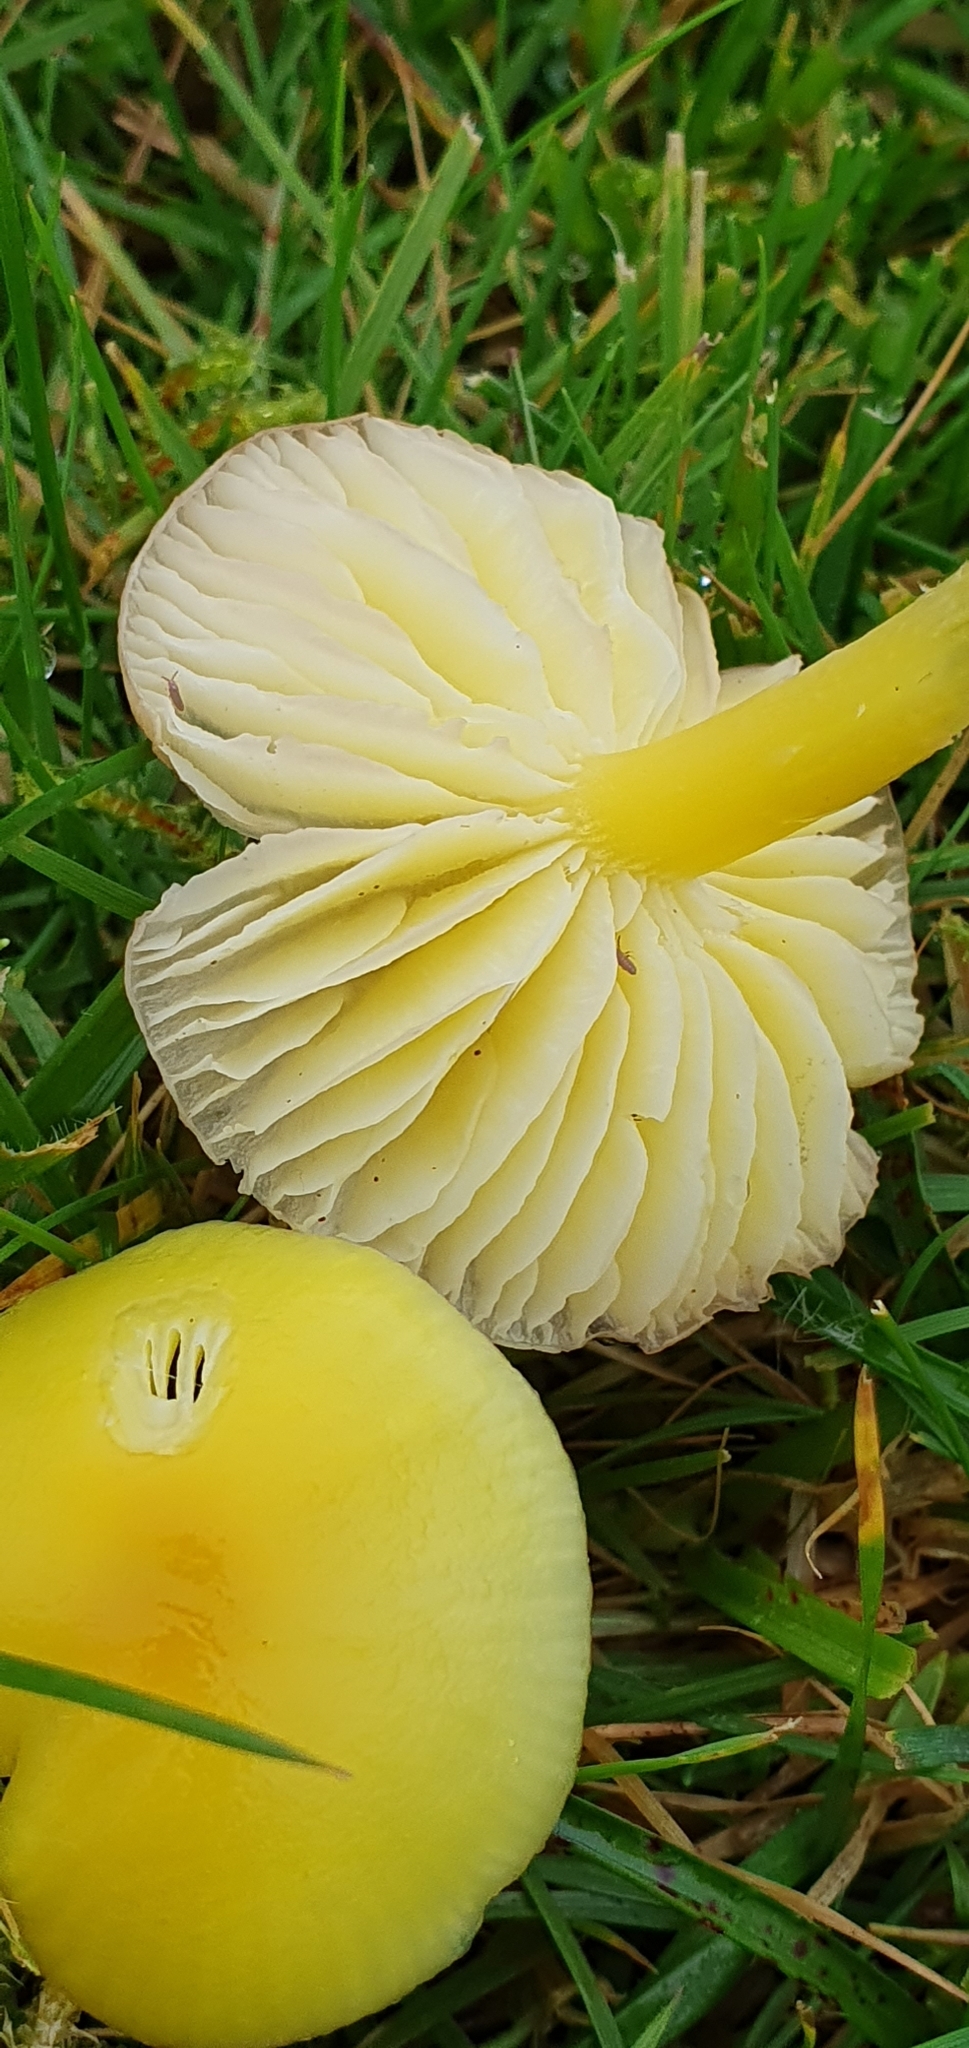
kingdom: Fungi
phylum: Basidiomycota
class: Agaricomycetes
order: Agaricales
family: Hygrophoraceae
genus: Hygrocybe
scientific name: Hygrocybe ceracea
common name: Butter waxcap
